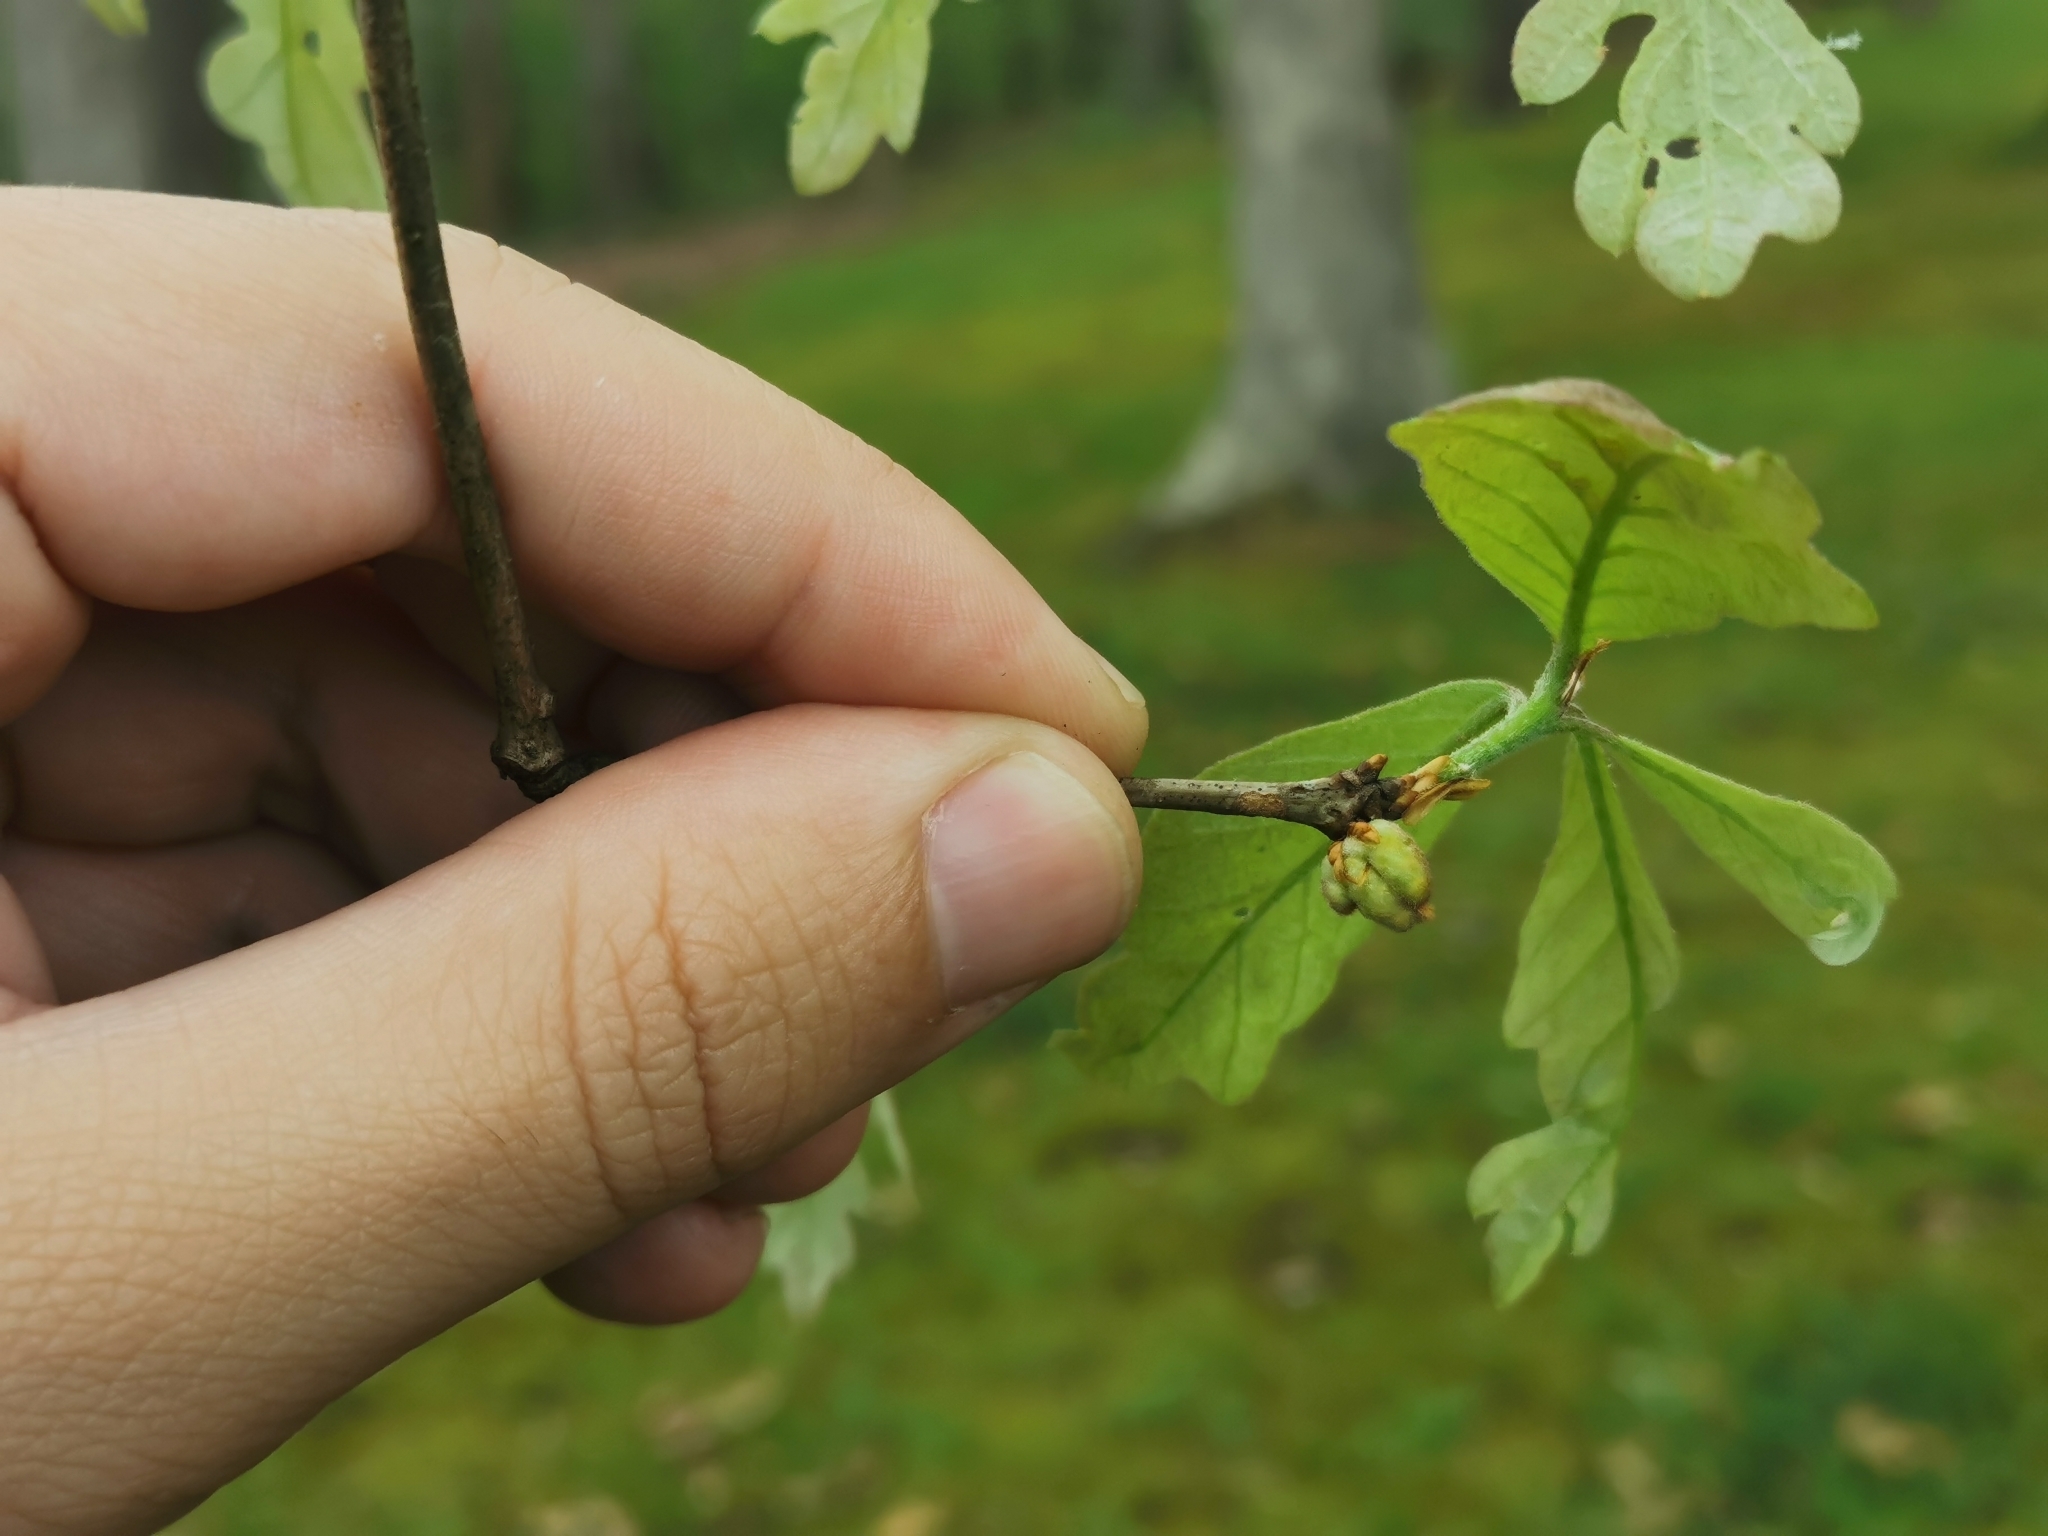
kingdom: Animalia
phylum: Arthropoda
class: Insecta
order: Hymenoptera
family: Cynipidae
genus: Neuroterus
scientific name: Neuroterus minutulus
